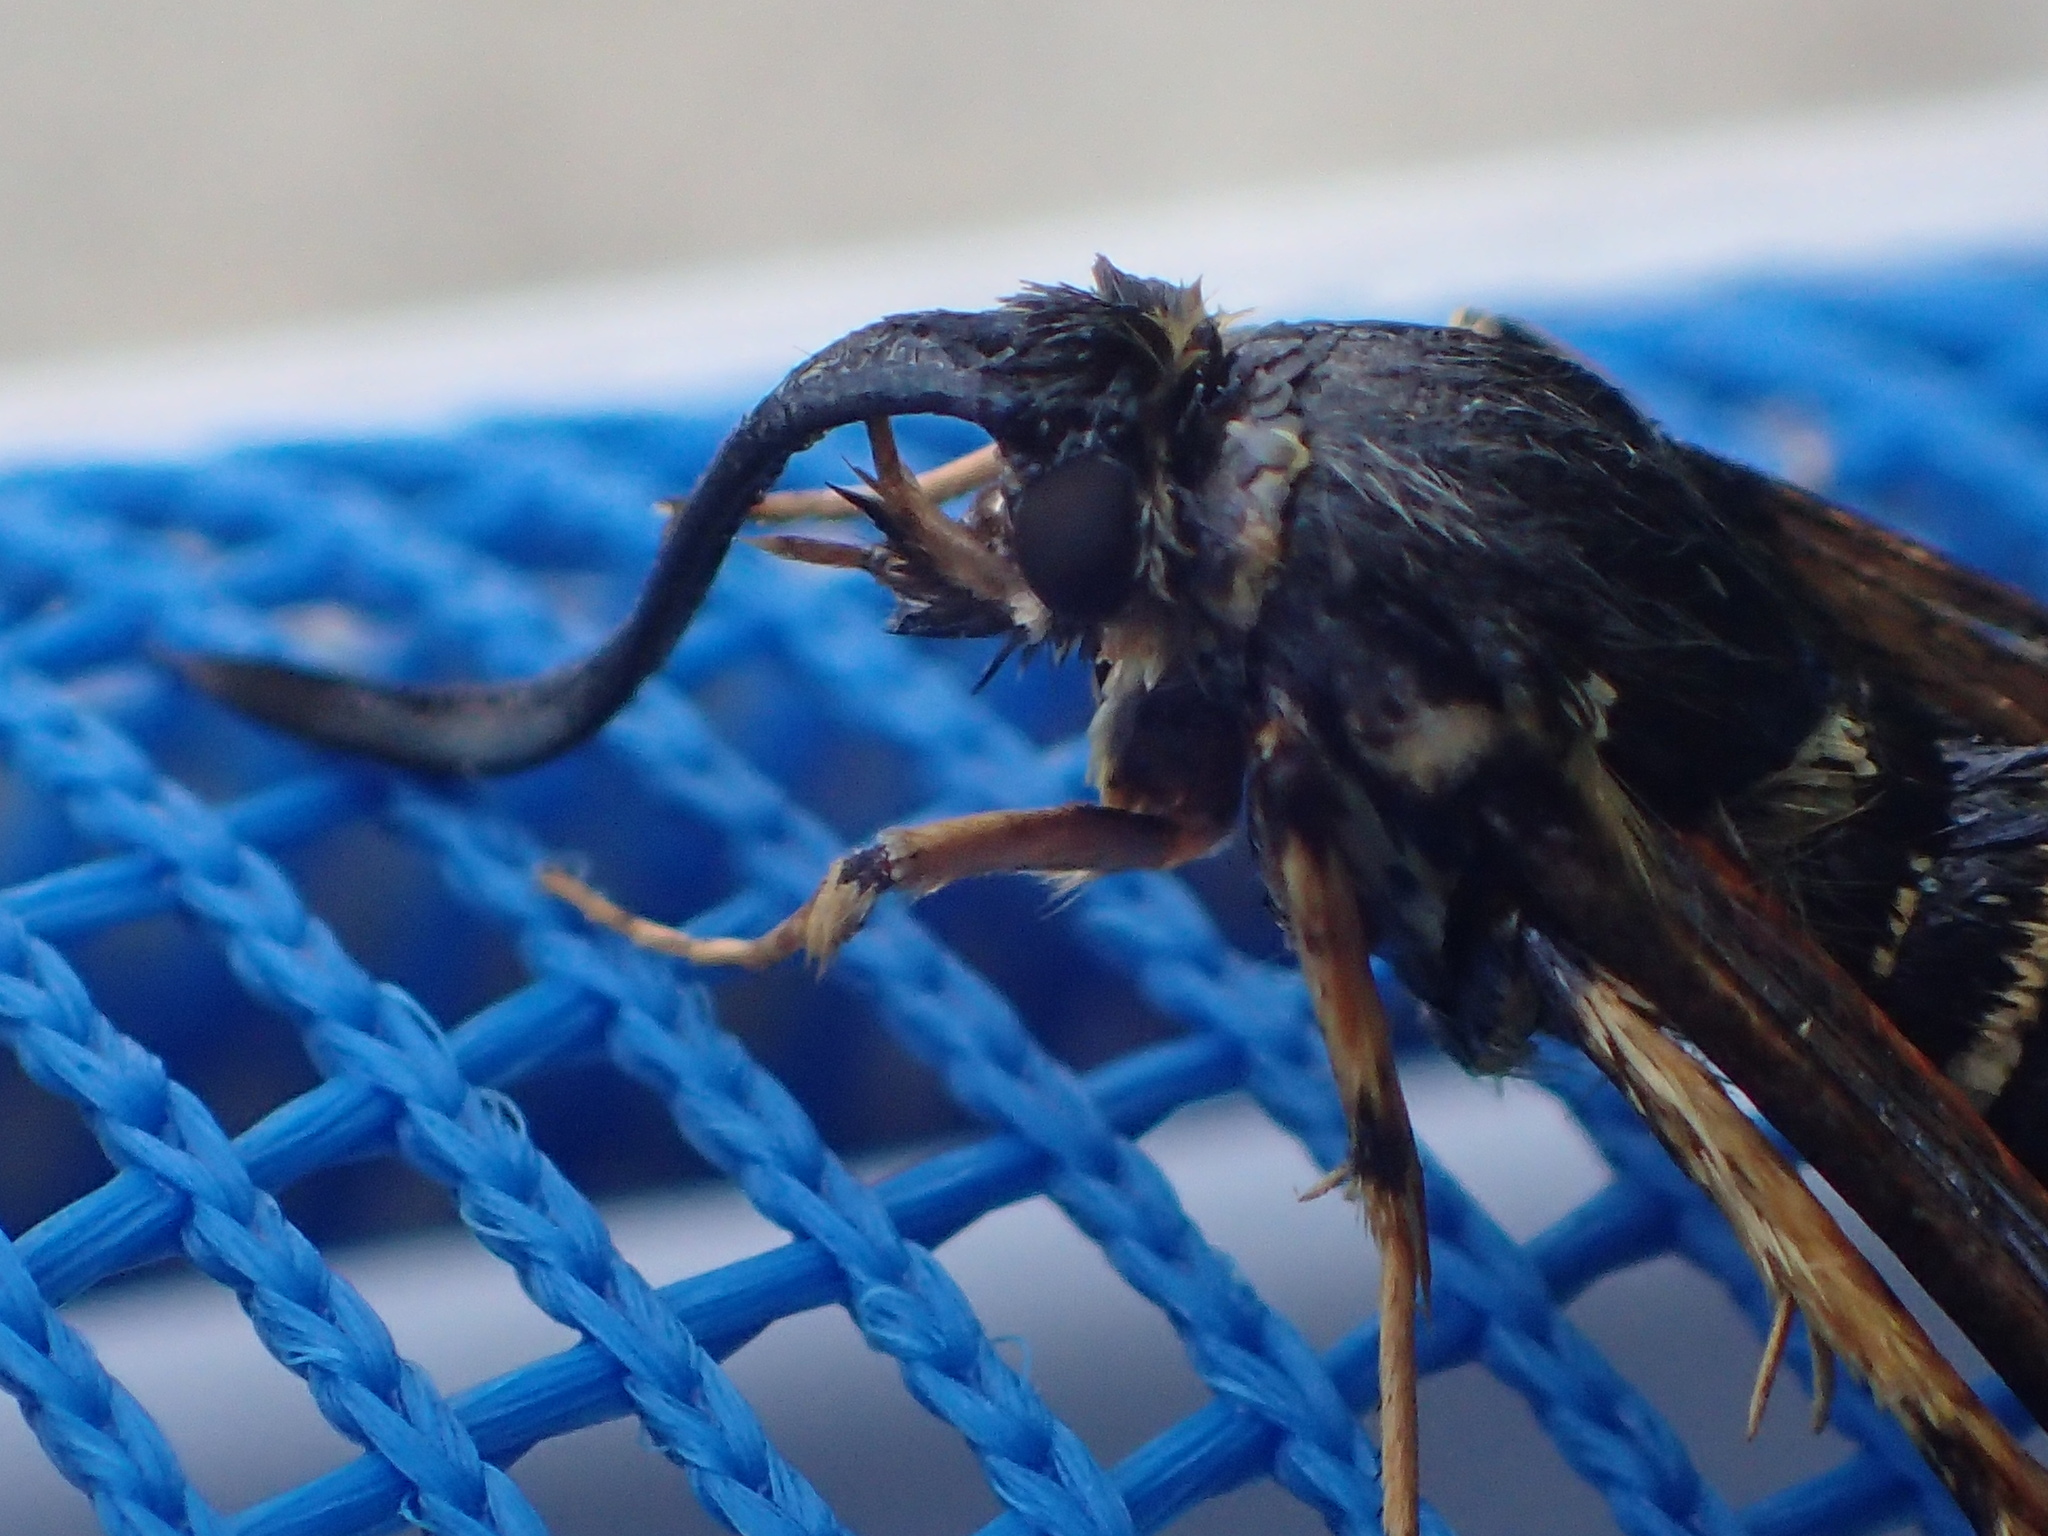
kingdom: Animalia
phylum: Arthropoda
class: Insecta
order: Lepidoptera
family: Sesiidae
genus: Synanthedon
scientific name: Synanthedon rileyana
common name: Riley's clearwing moth
